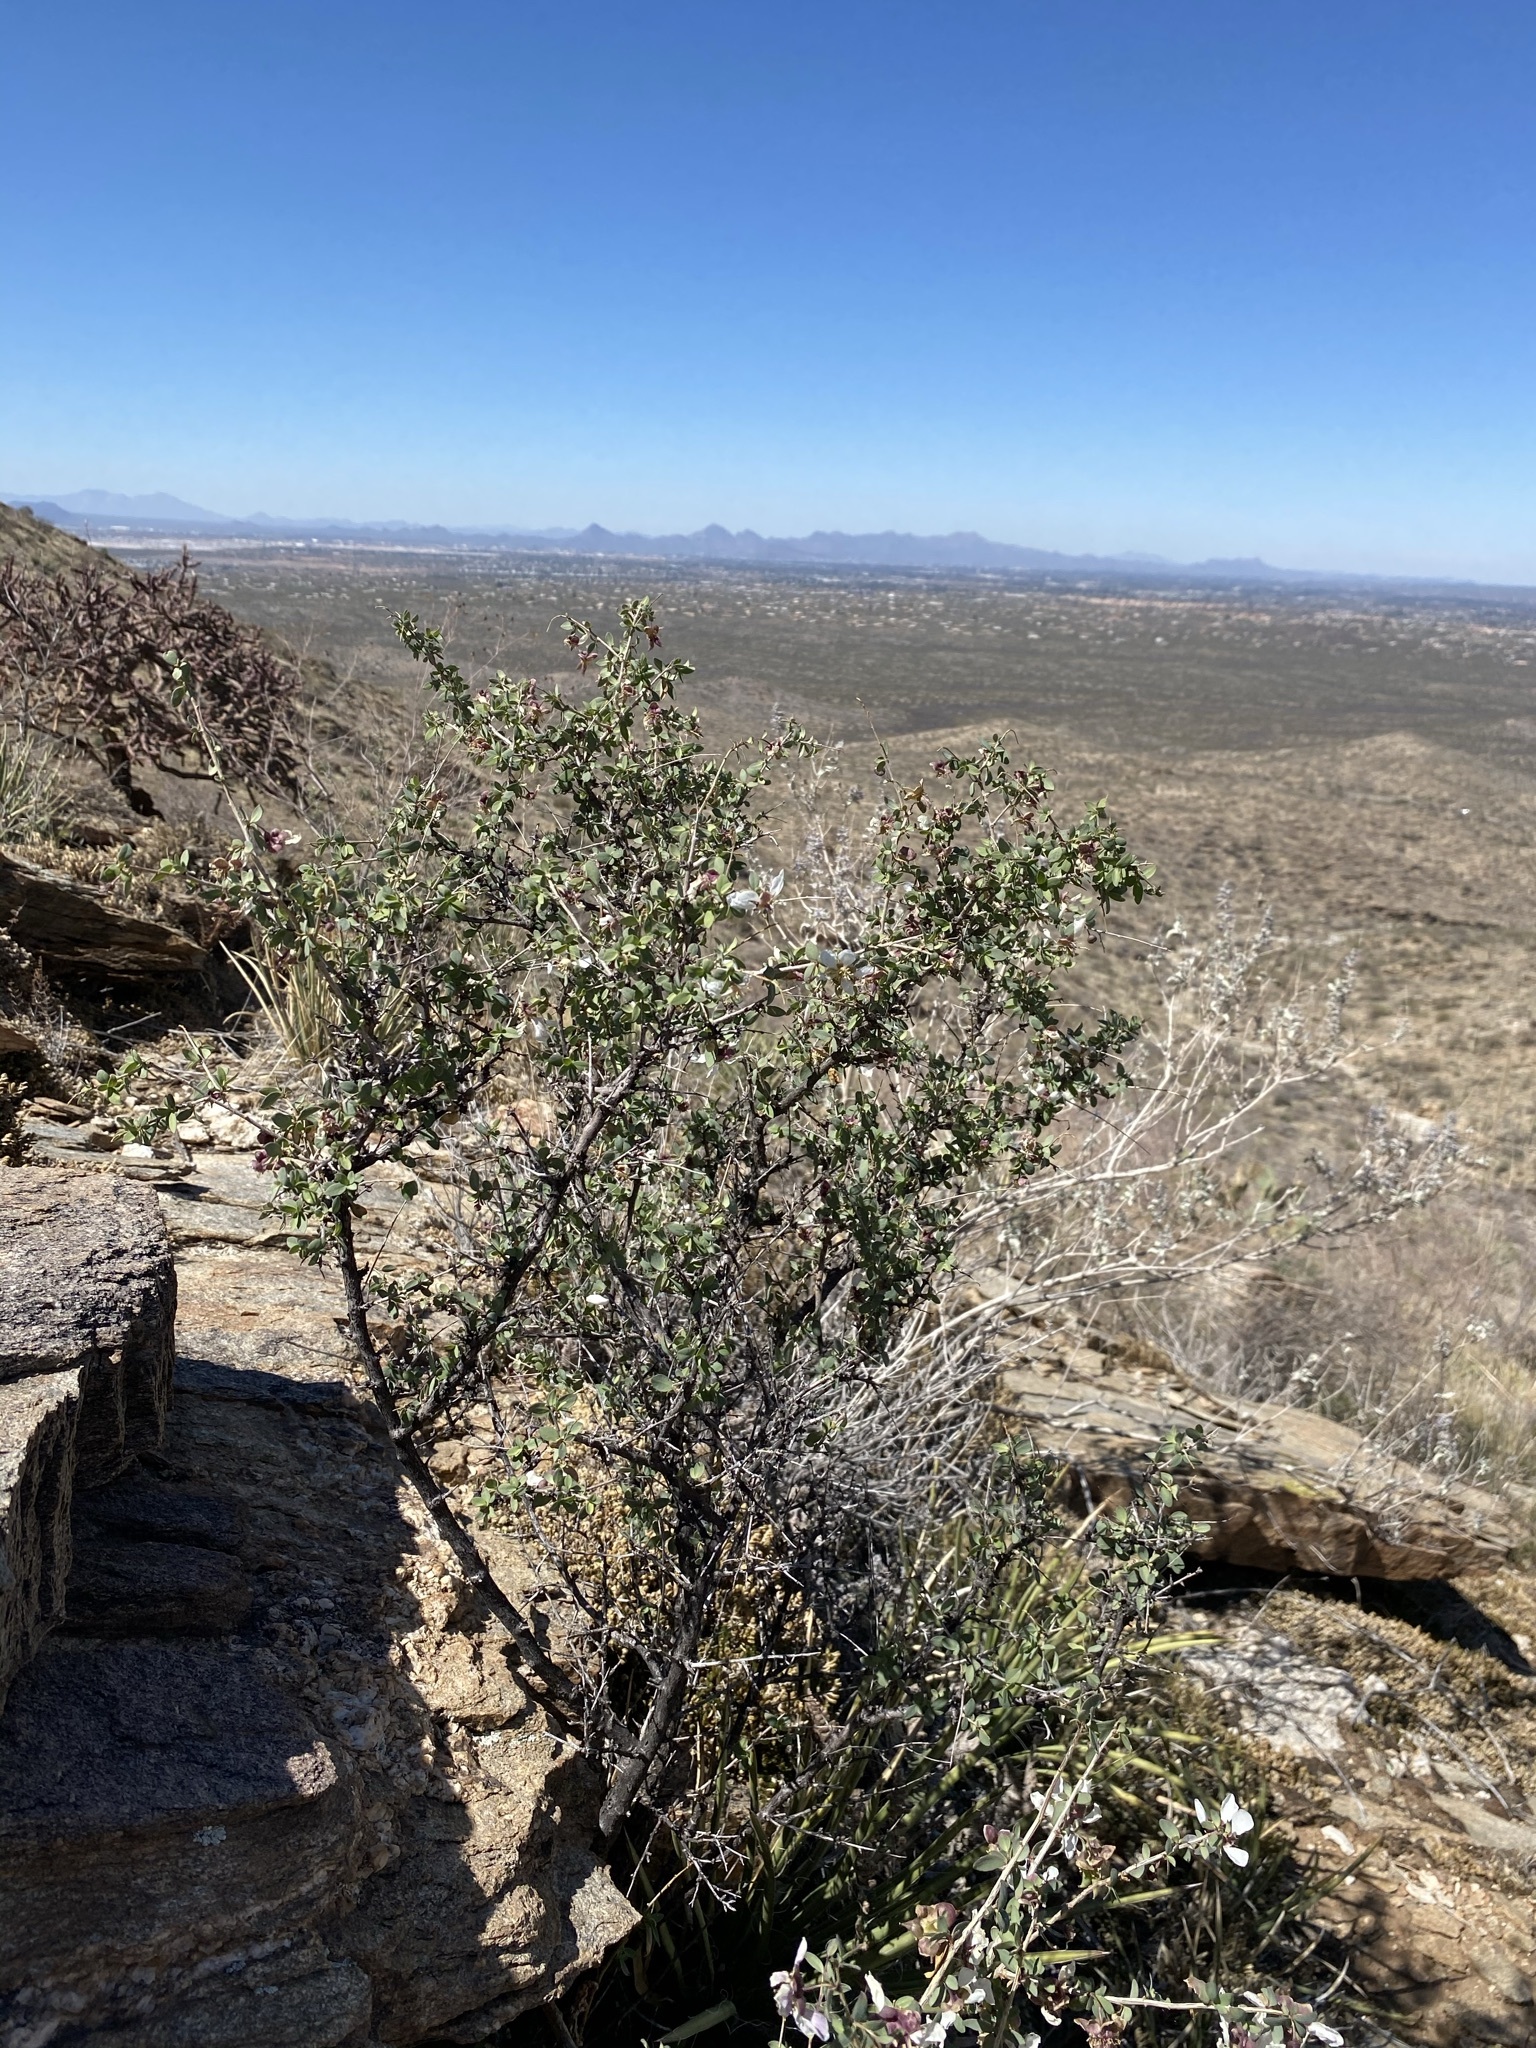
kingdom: Plantae
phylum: Tracheophyta
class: Magnoliopsida
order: Crossosomatales
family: Crossosomataceae
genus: Crossosoma
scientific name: Crossosoma bigelovii
